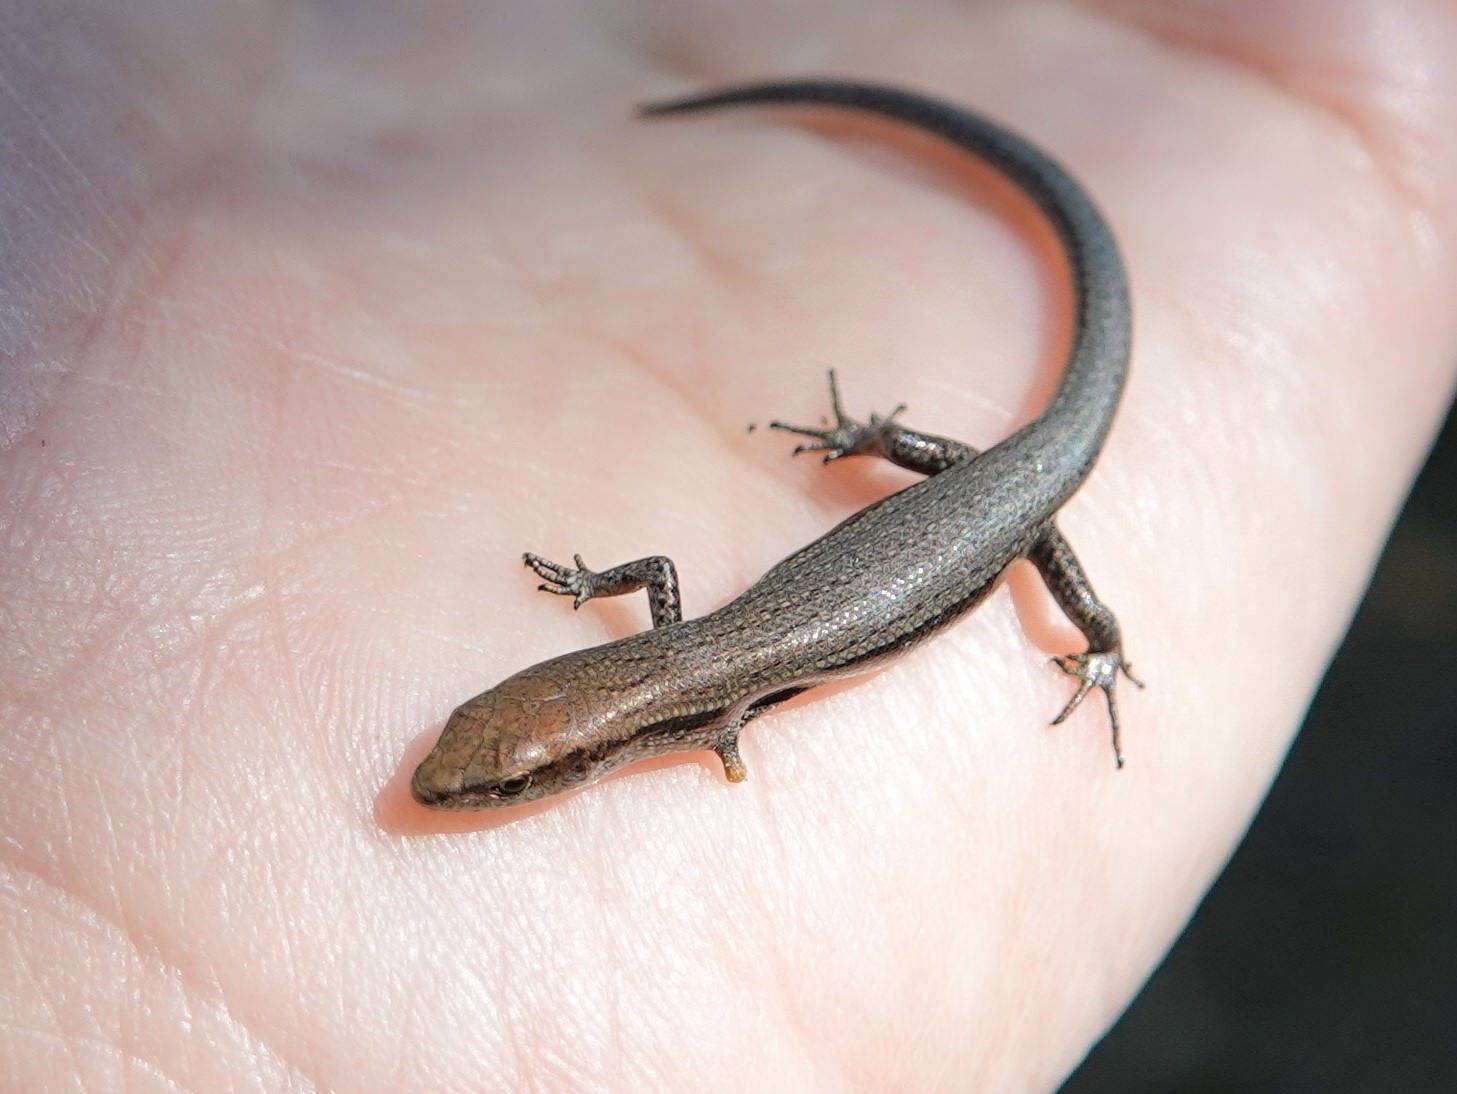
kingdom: Animalia
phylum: Chordata
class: Squamata
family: Scincidae
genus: Lampropholis
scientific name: Lampropholis delicata
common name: Plague skink
